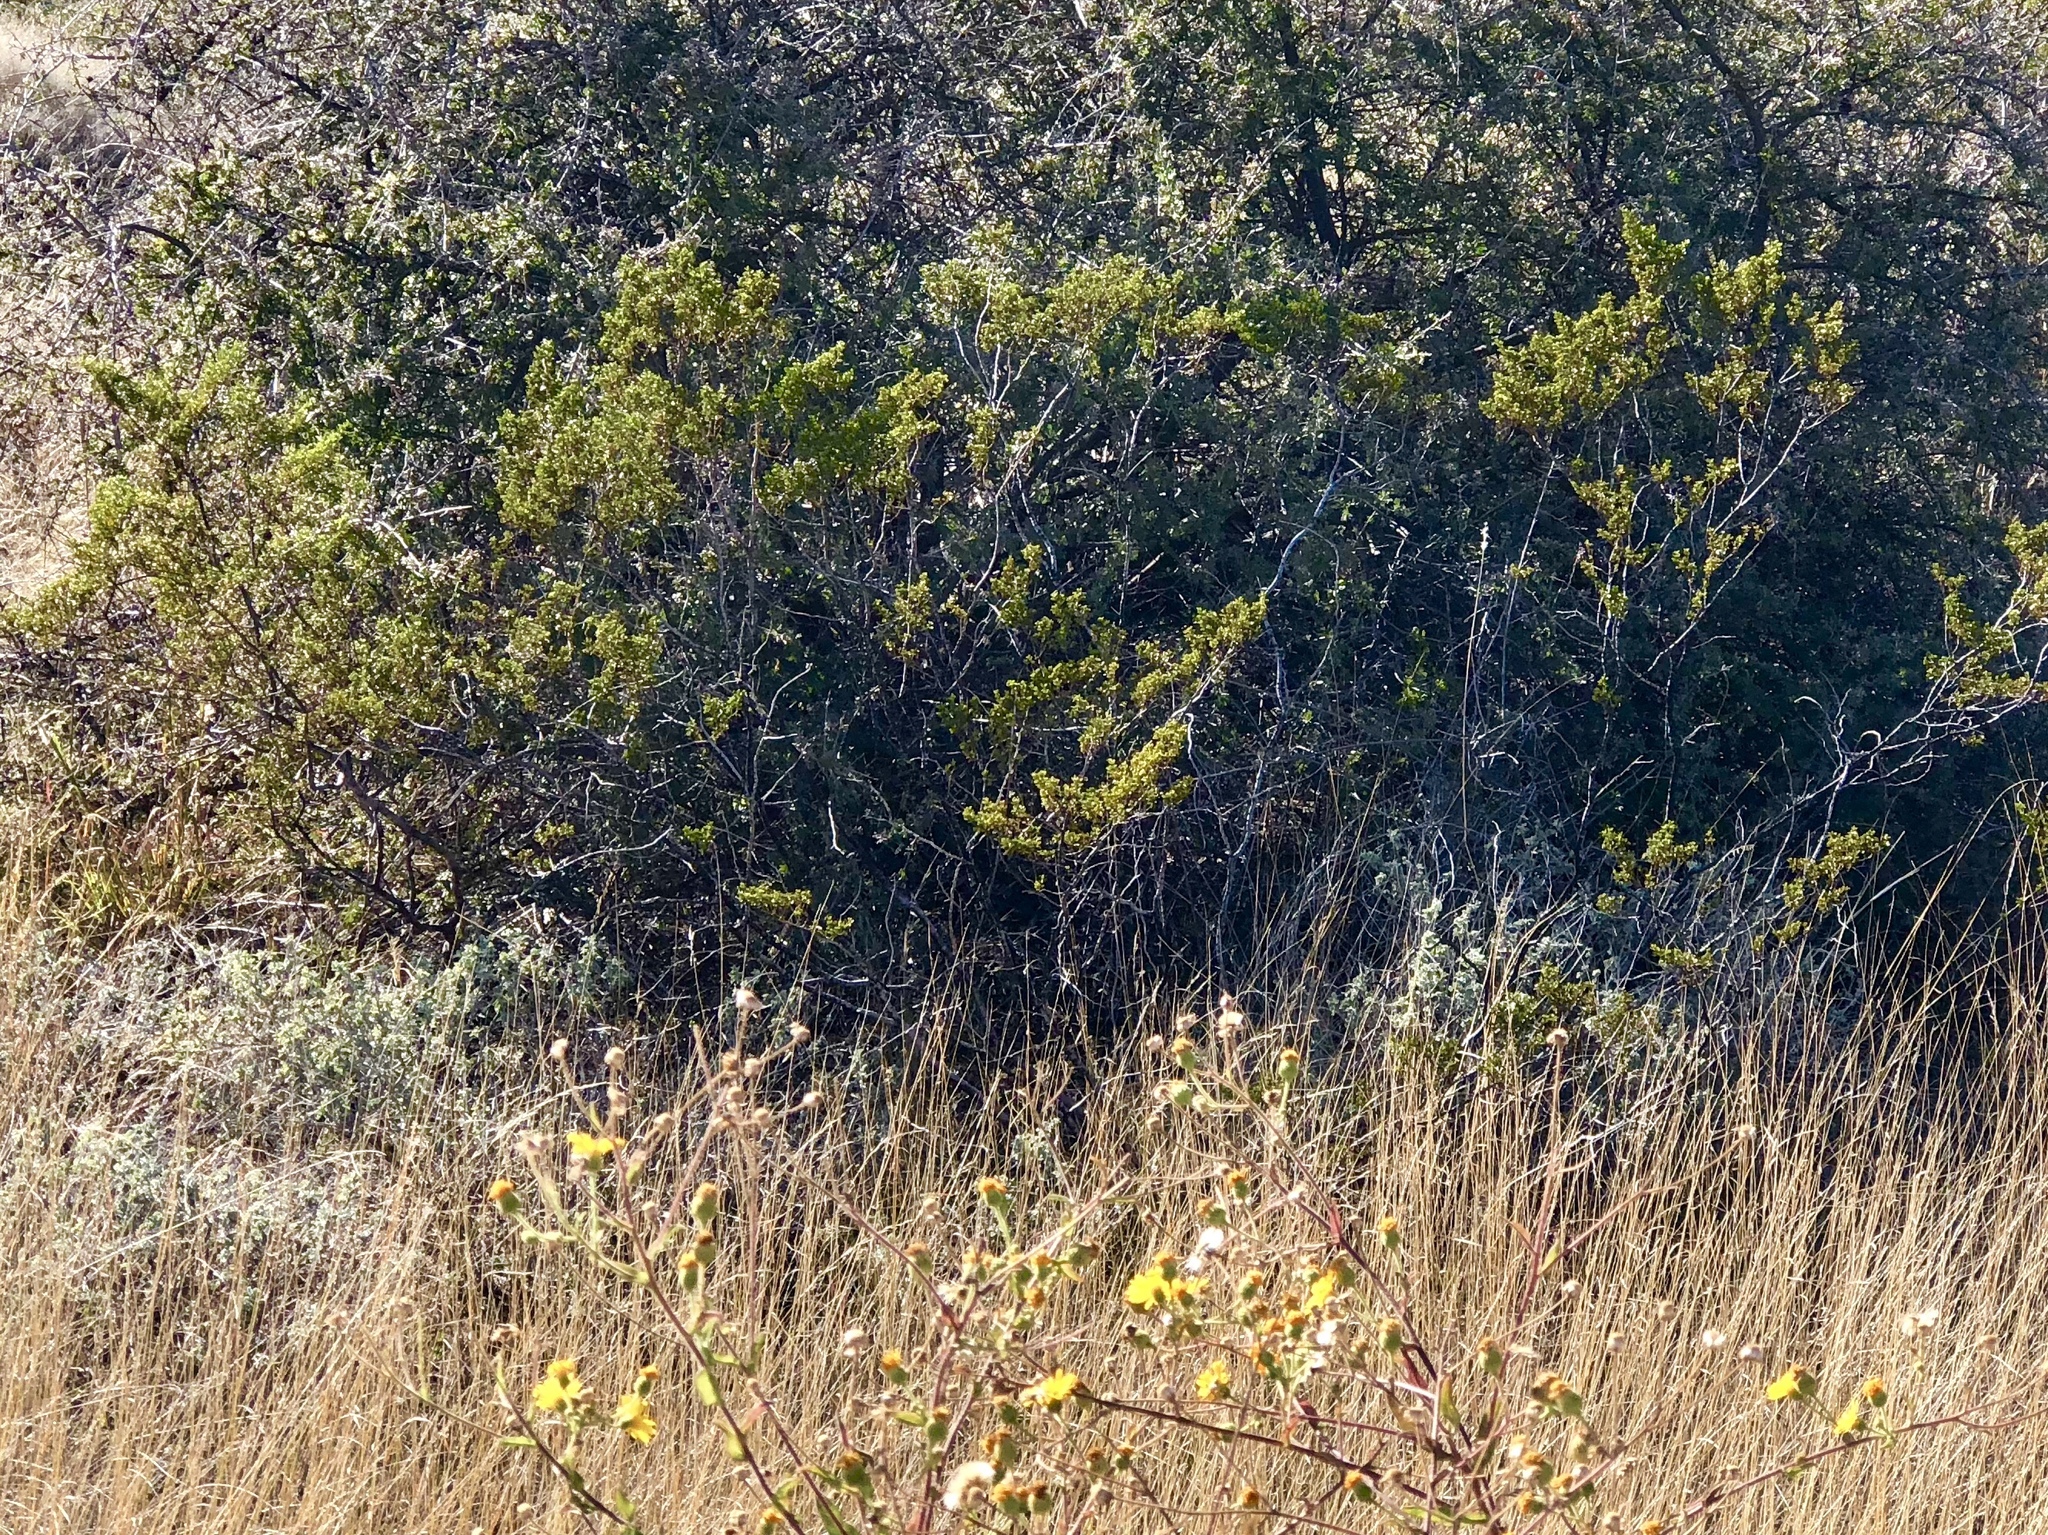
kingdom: Plantae
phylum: Tracheophyta
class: Magnoliopsida
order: Zygophyllales
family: Zygophyllaceae
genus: Larrea
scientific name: Larrea tridentata
